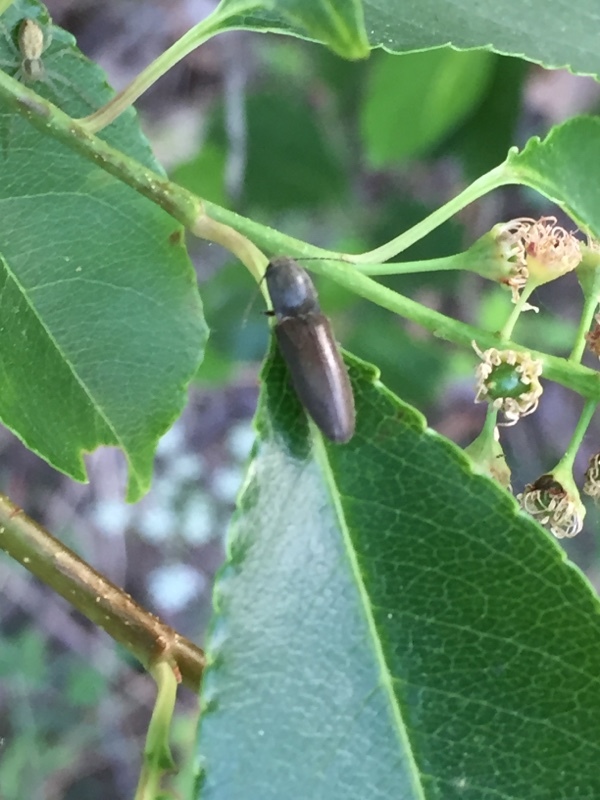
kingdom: Animalia
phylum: Arthropoda
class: Insecta
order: Coleoptera
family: Elateridae
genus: Athous
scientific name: Athous haemorrhoidalis
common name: Red-brown click beetle
